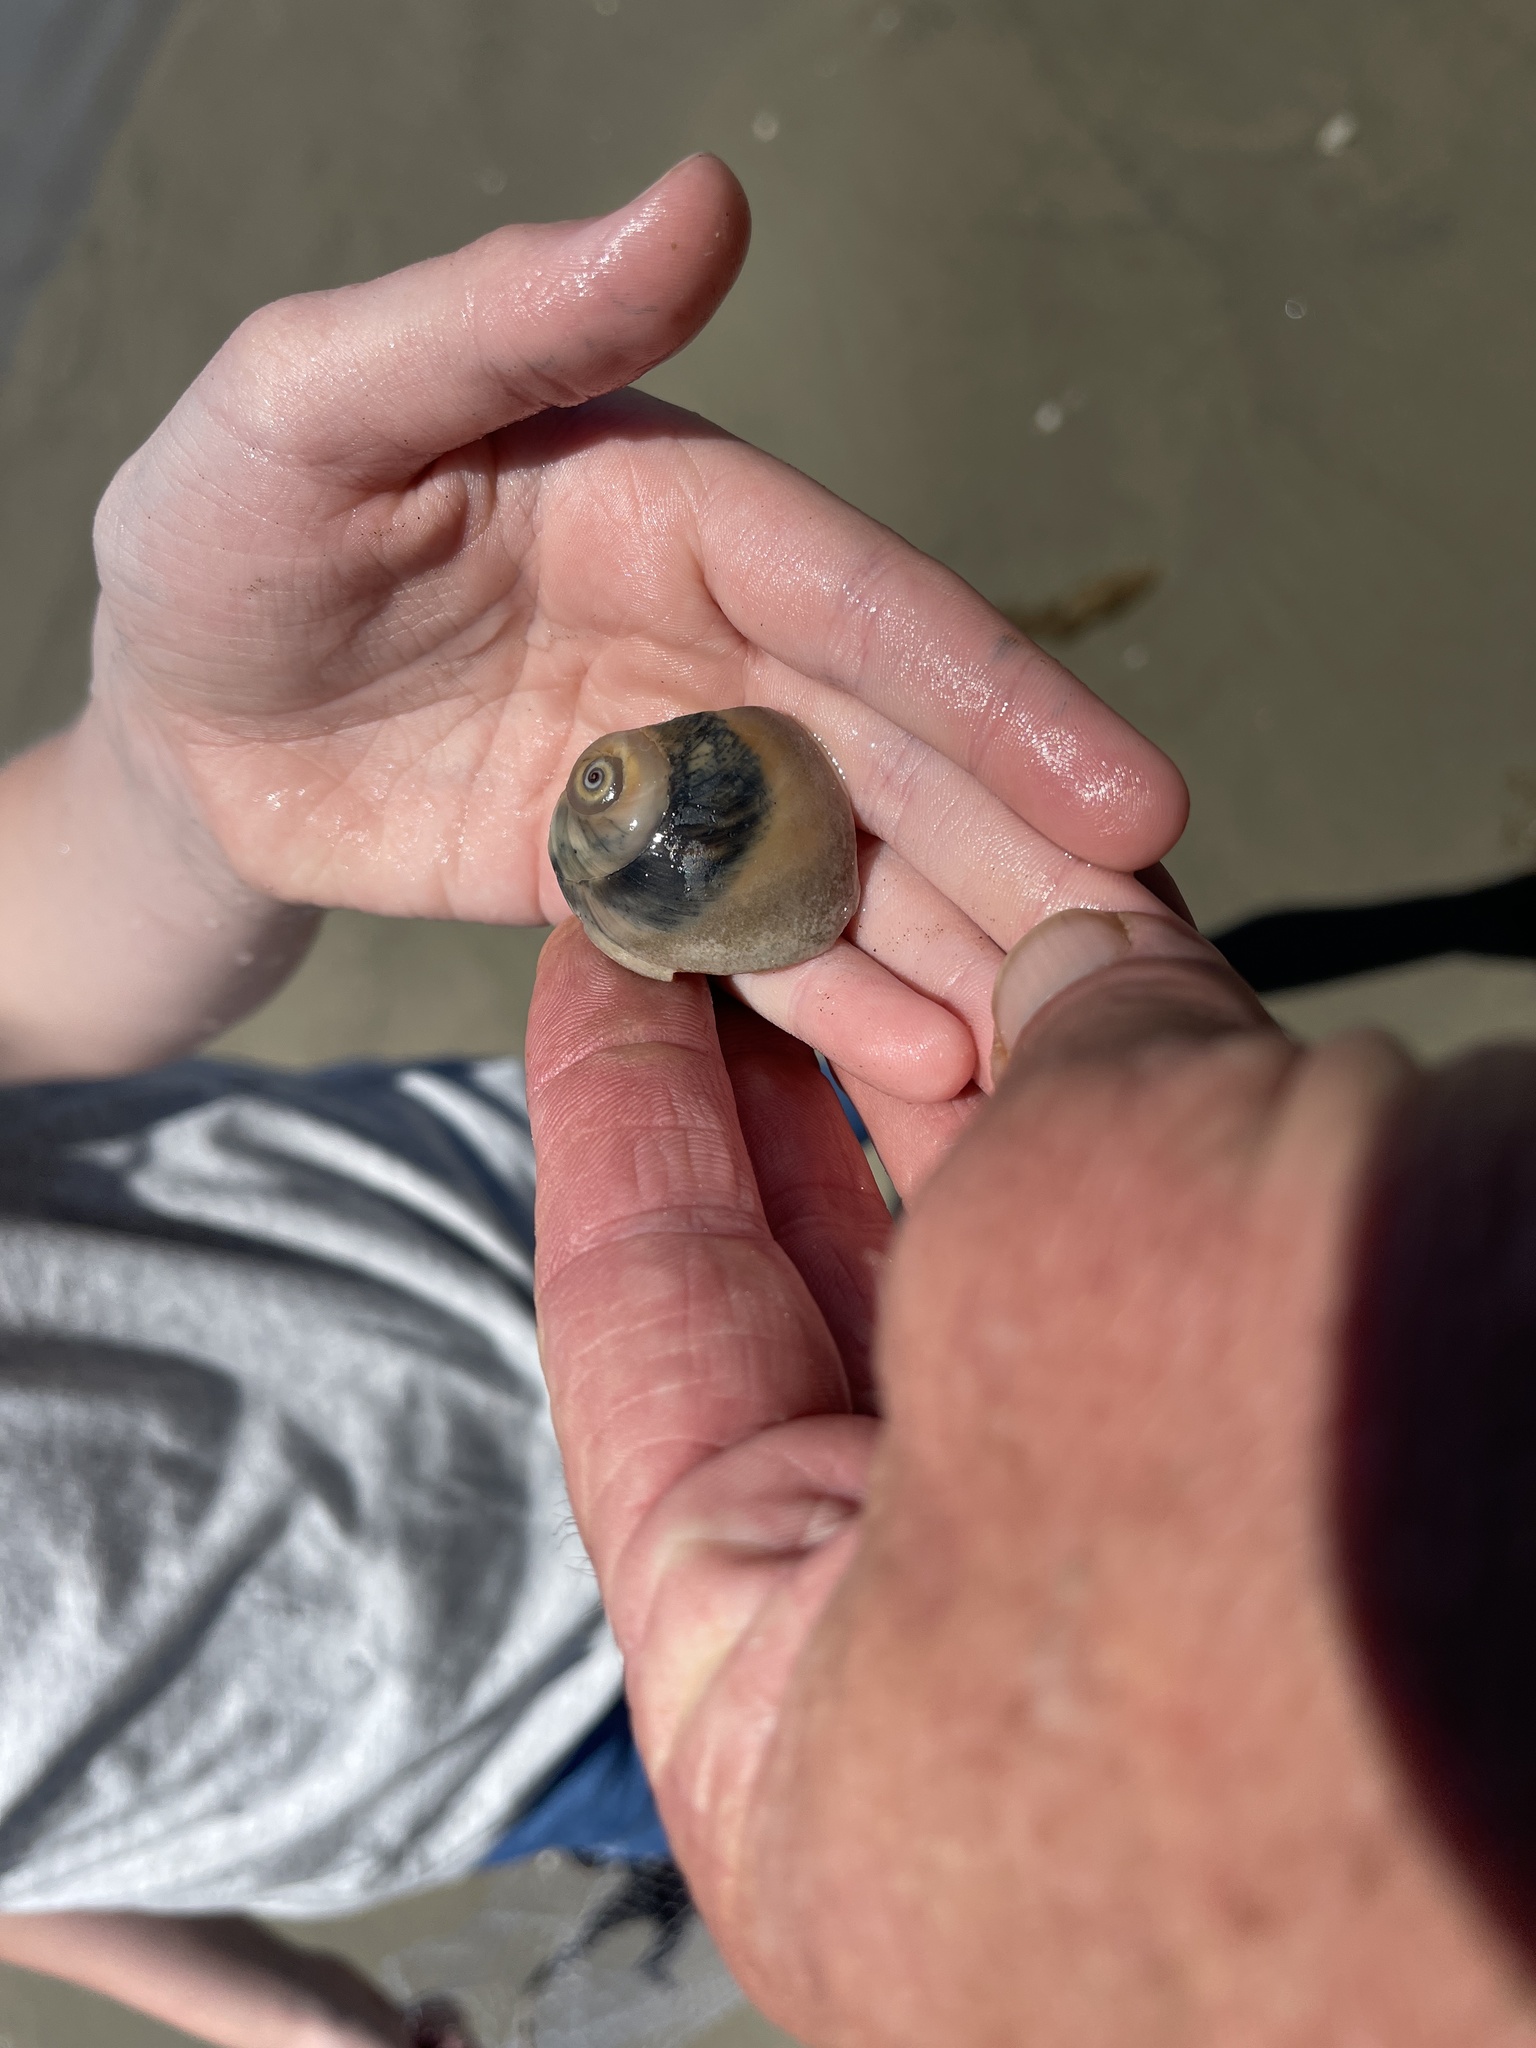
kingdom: Animalia
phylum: Mollusca
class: Gastropoda
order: Littorinimorpha
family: Naticidae
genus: Neverita
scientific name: Neverita duplicata
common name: Lobed moonsnail
